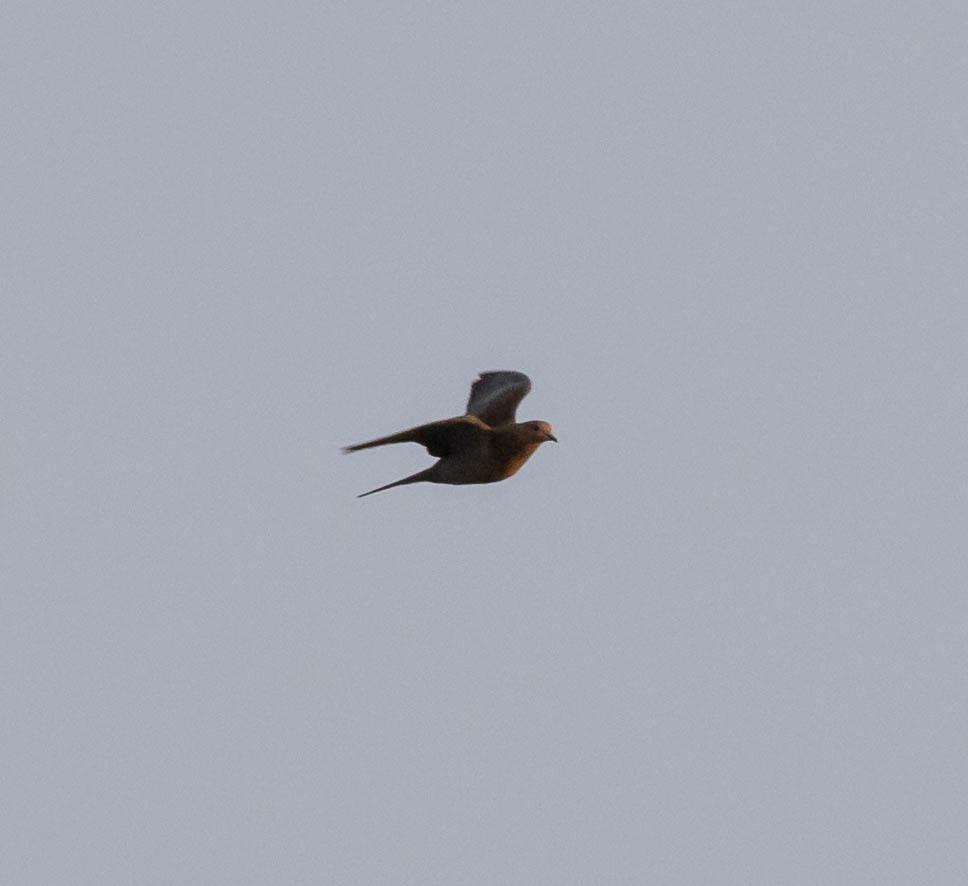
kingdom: Animalia
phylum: Chordata
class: Aves
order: Columbiformes
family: Columbidae
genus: Zenaida
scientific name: Zenaida macroura
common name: Mourning dove
